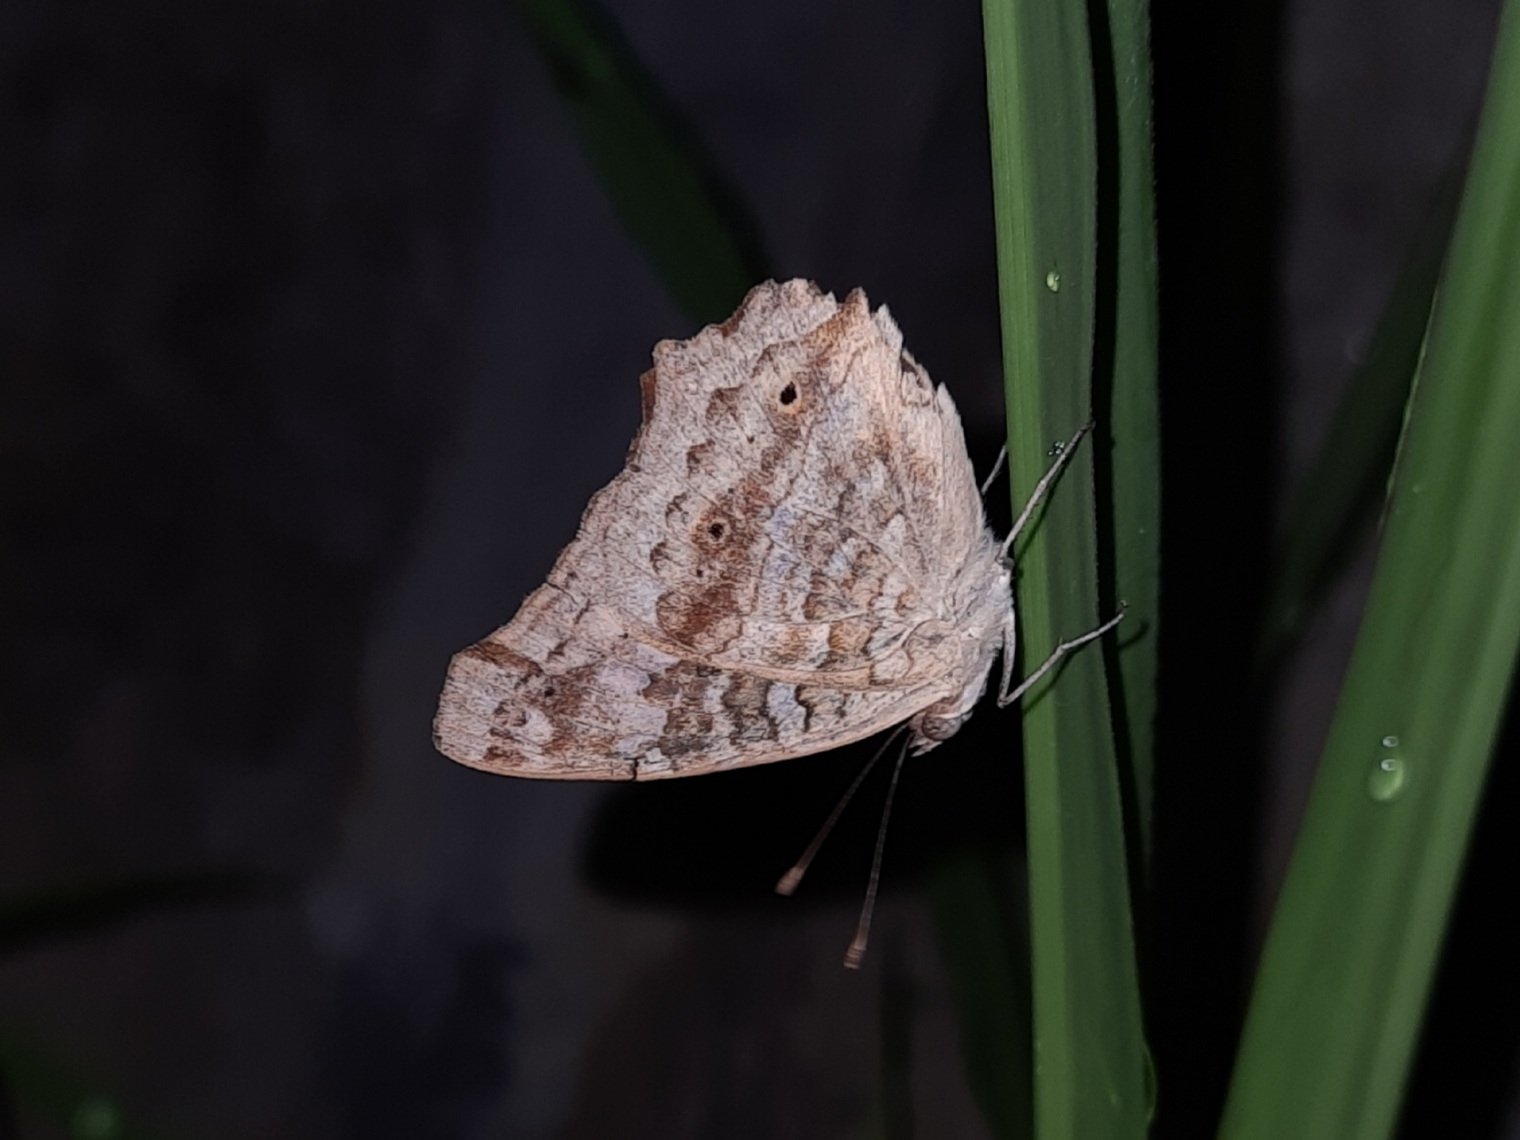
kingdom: Animalia
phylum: Arthropoda
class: Insecta
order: Lepidoptera
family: Nymphalidae
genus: Junonia
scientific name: Junonia lemonias
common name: Lemon pansy
